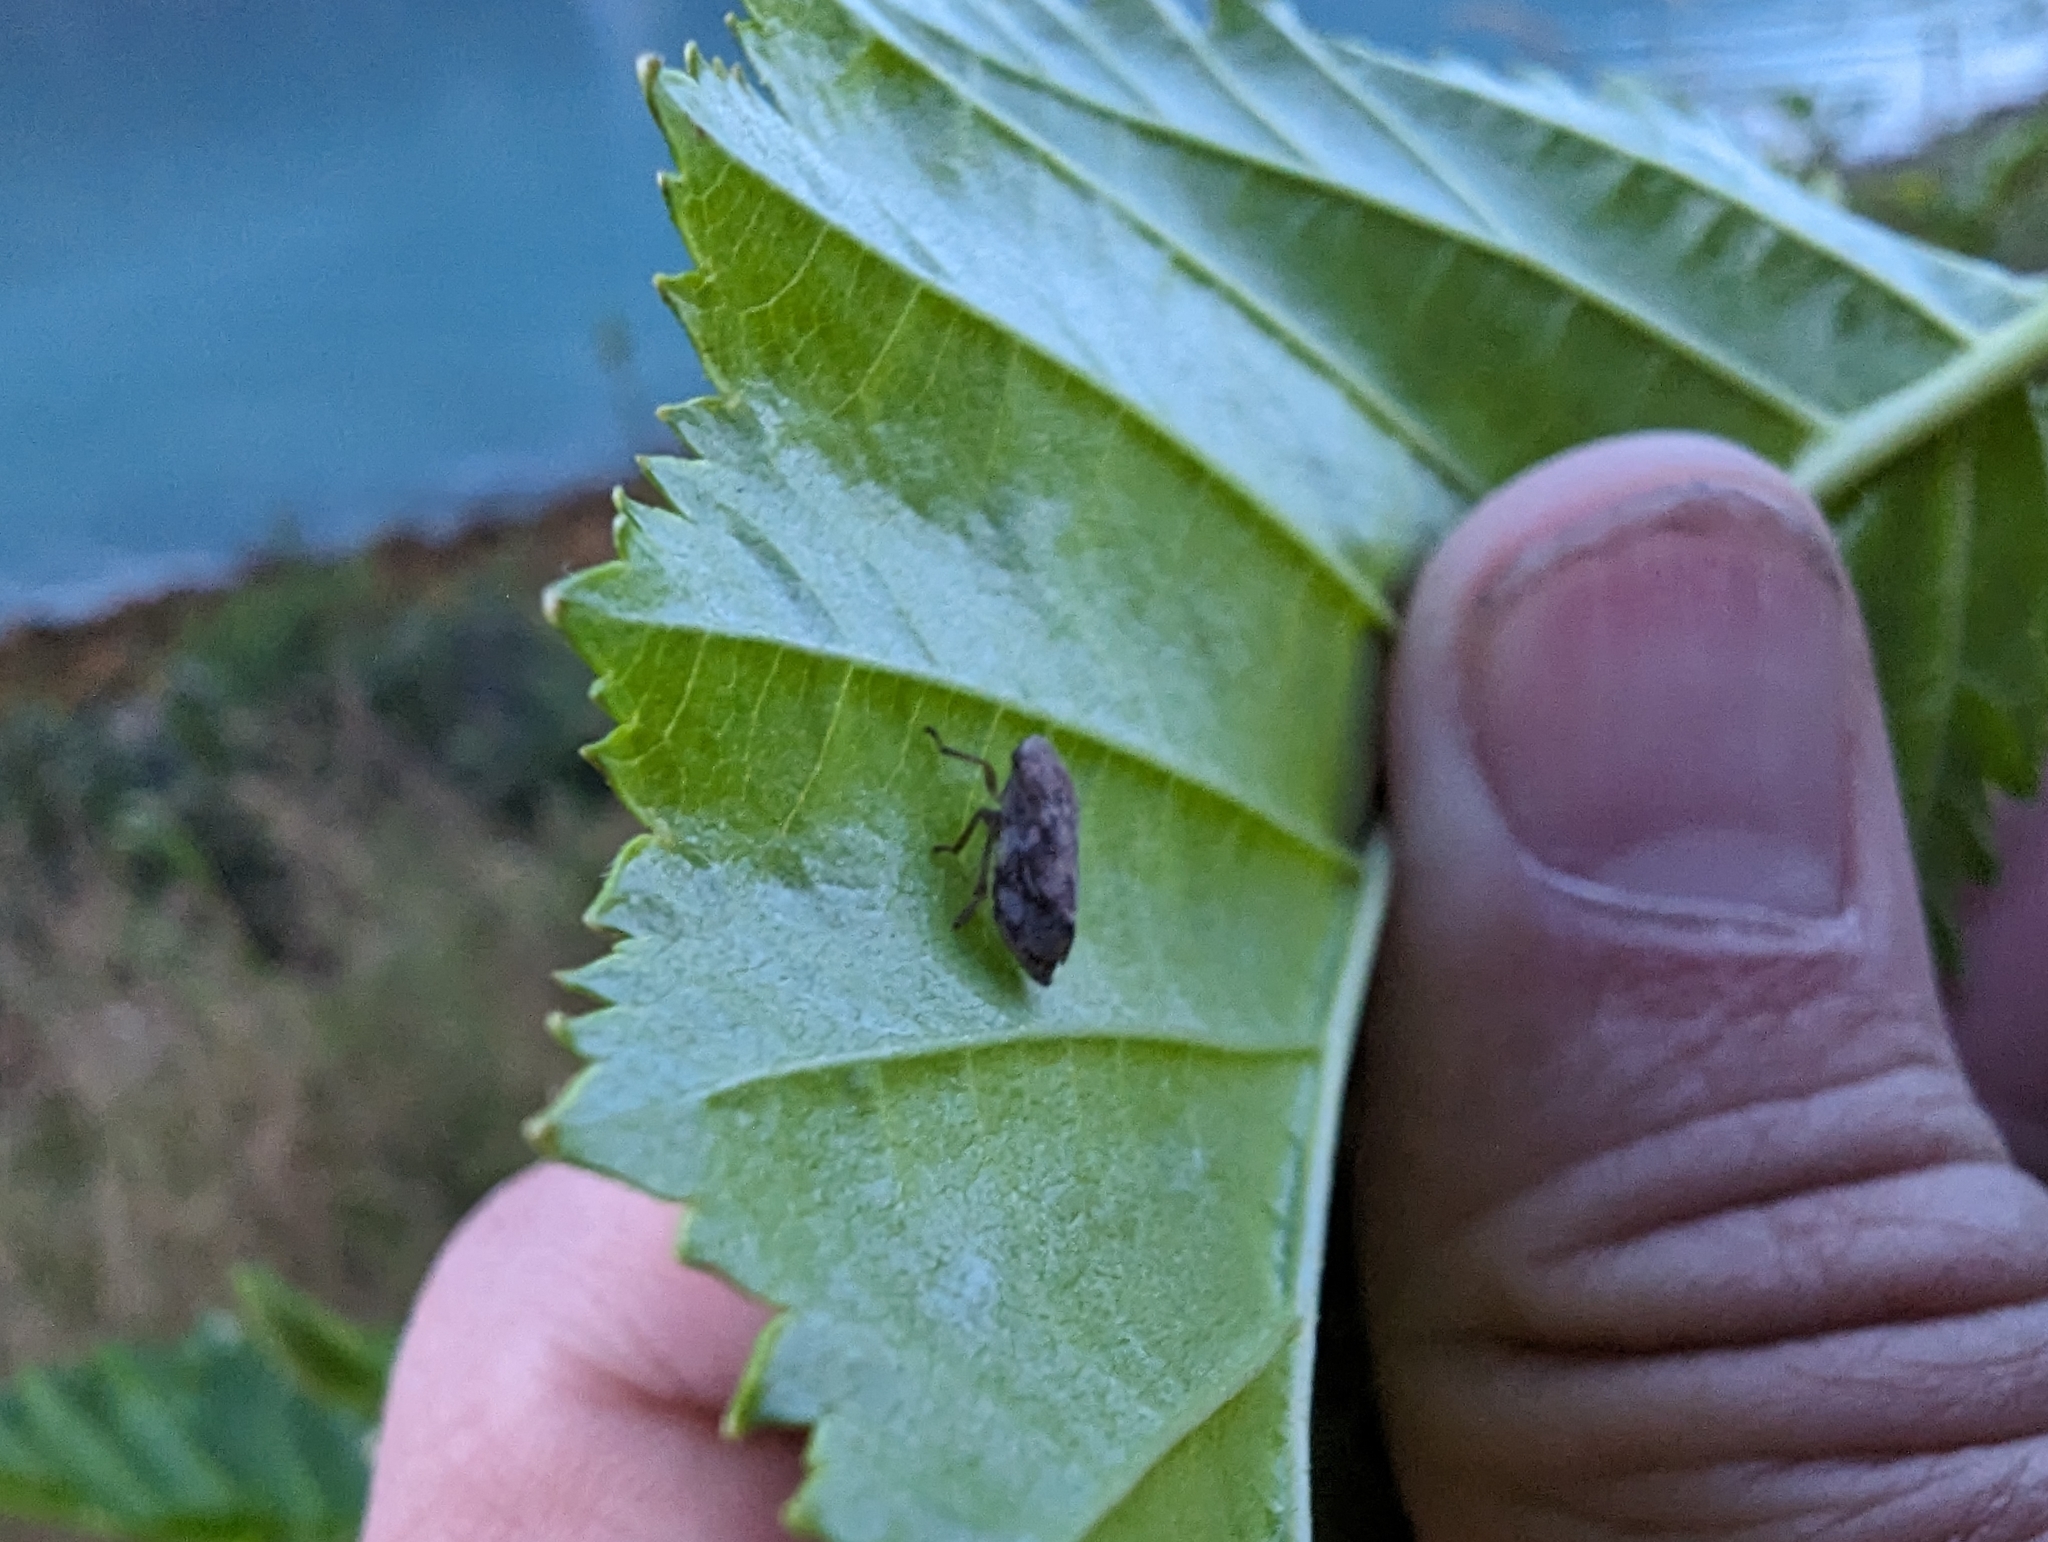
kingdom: Animalia
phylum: Arthropoda
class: Insecta
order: Hemiptera
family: Aphrophoridae
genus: Philaenus
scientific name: Philaenus spumarius
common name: Meadow spittlebug
